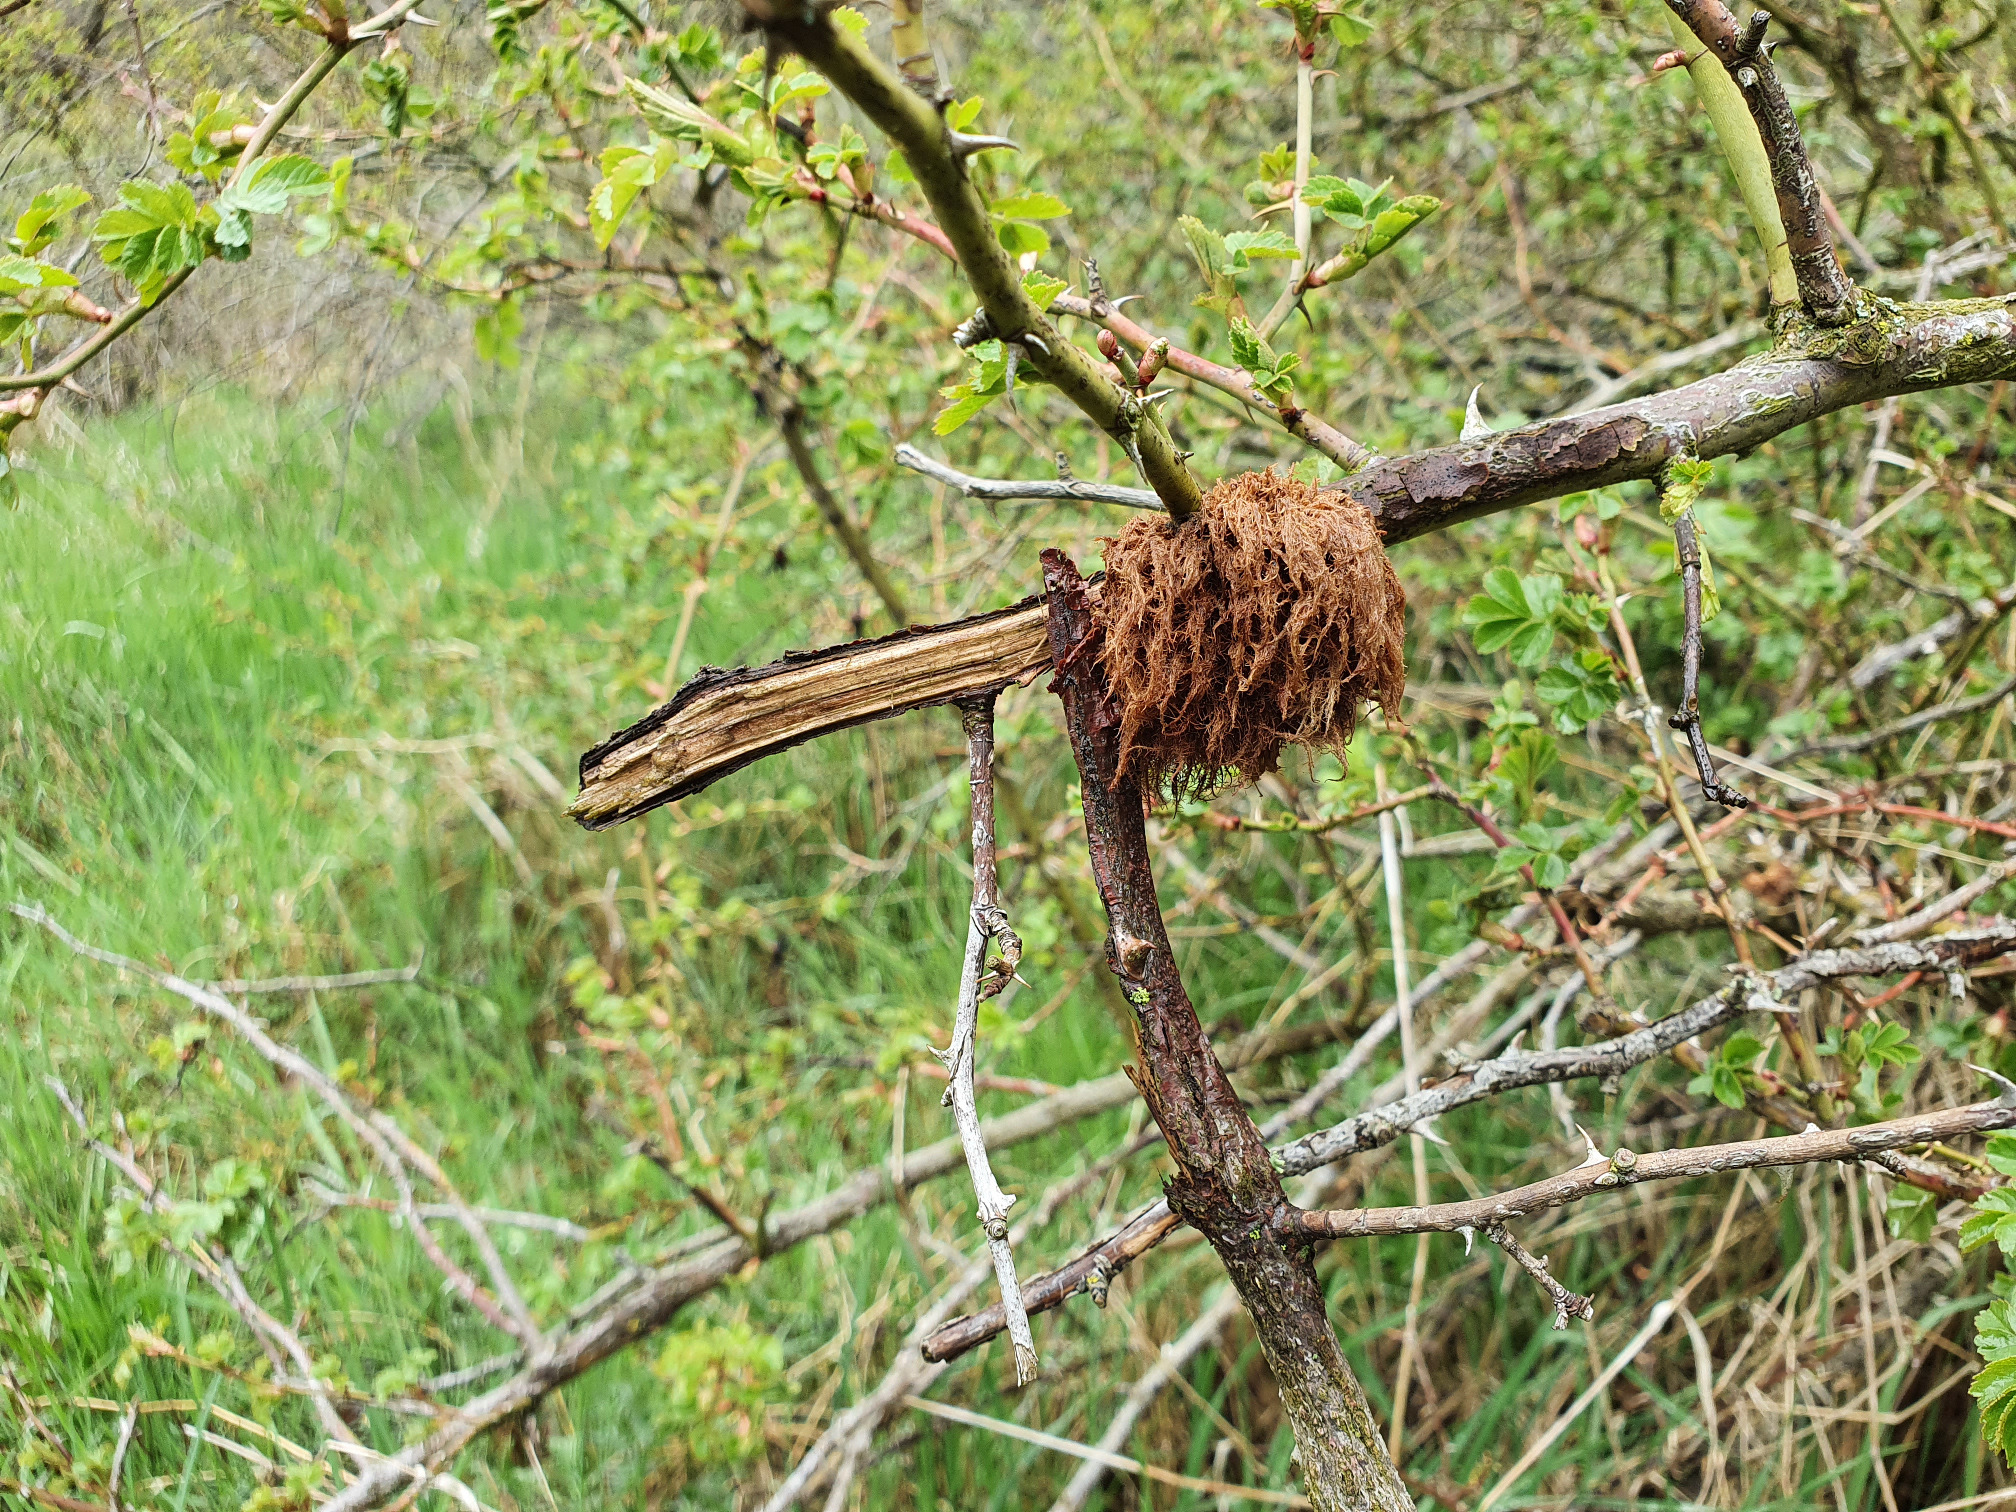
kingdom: Animalia
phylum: Arthropoda
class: Insecta
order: Hymenoptera
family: Cynipidae
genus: Diplolepis
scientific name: Diplolepis rosae
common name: Bedeguar gall
